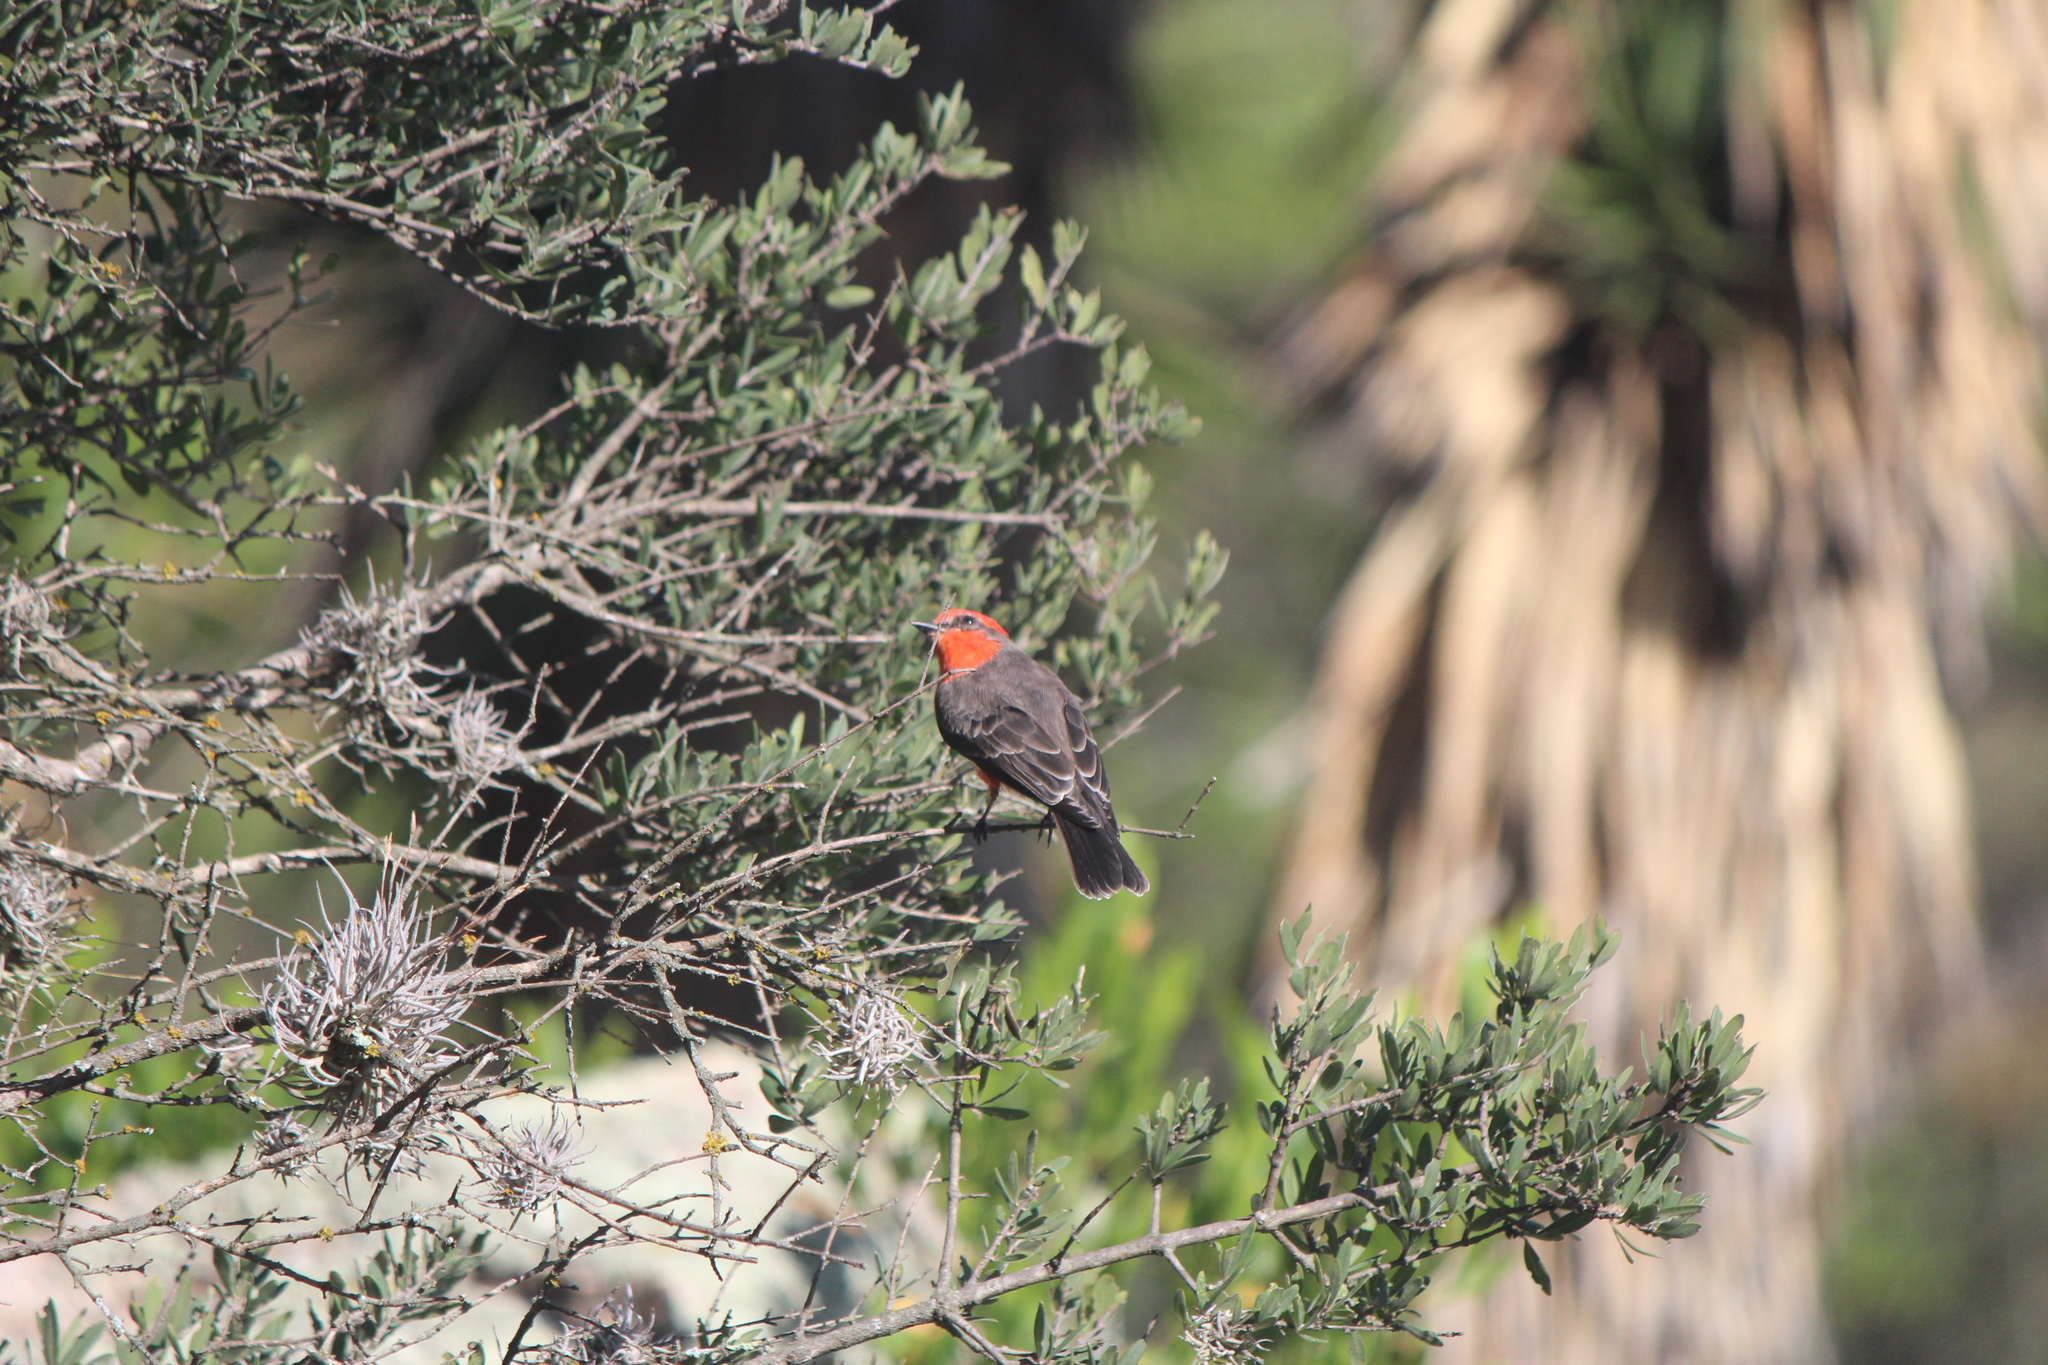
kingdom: Animalia
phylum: Chordata
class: Aves
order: Passeriformes
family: Tyrannidae
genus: Pyrocephalus
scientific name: Pyrocephalus rubinus
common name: Vermilion flycatcher
